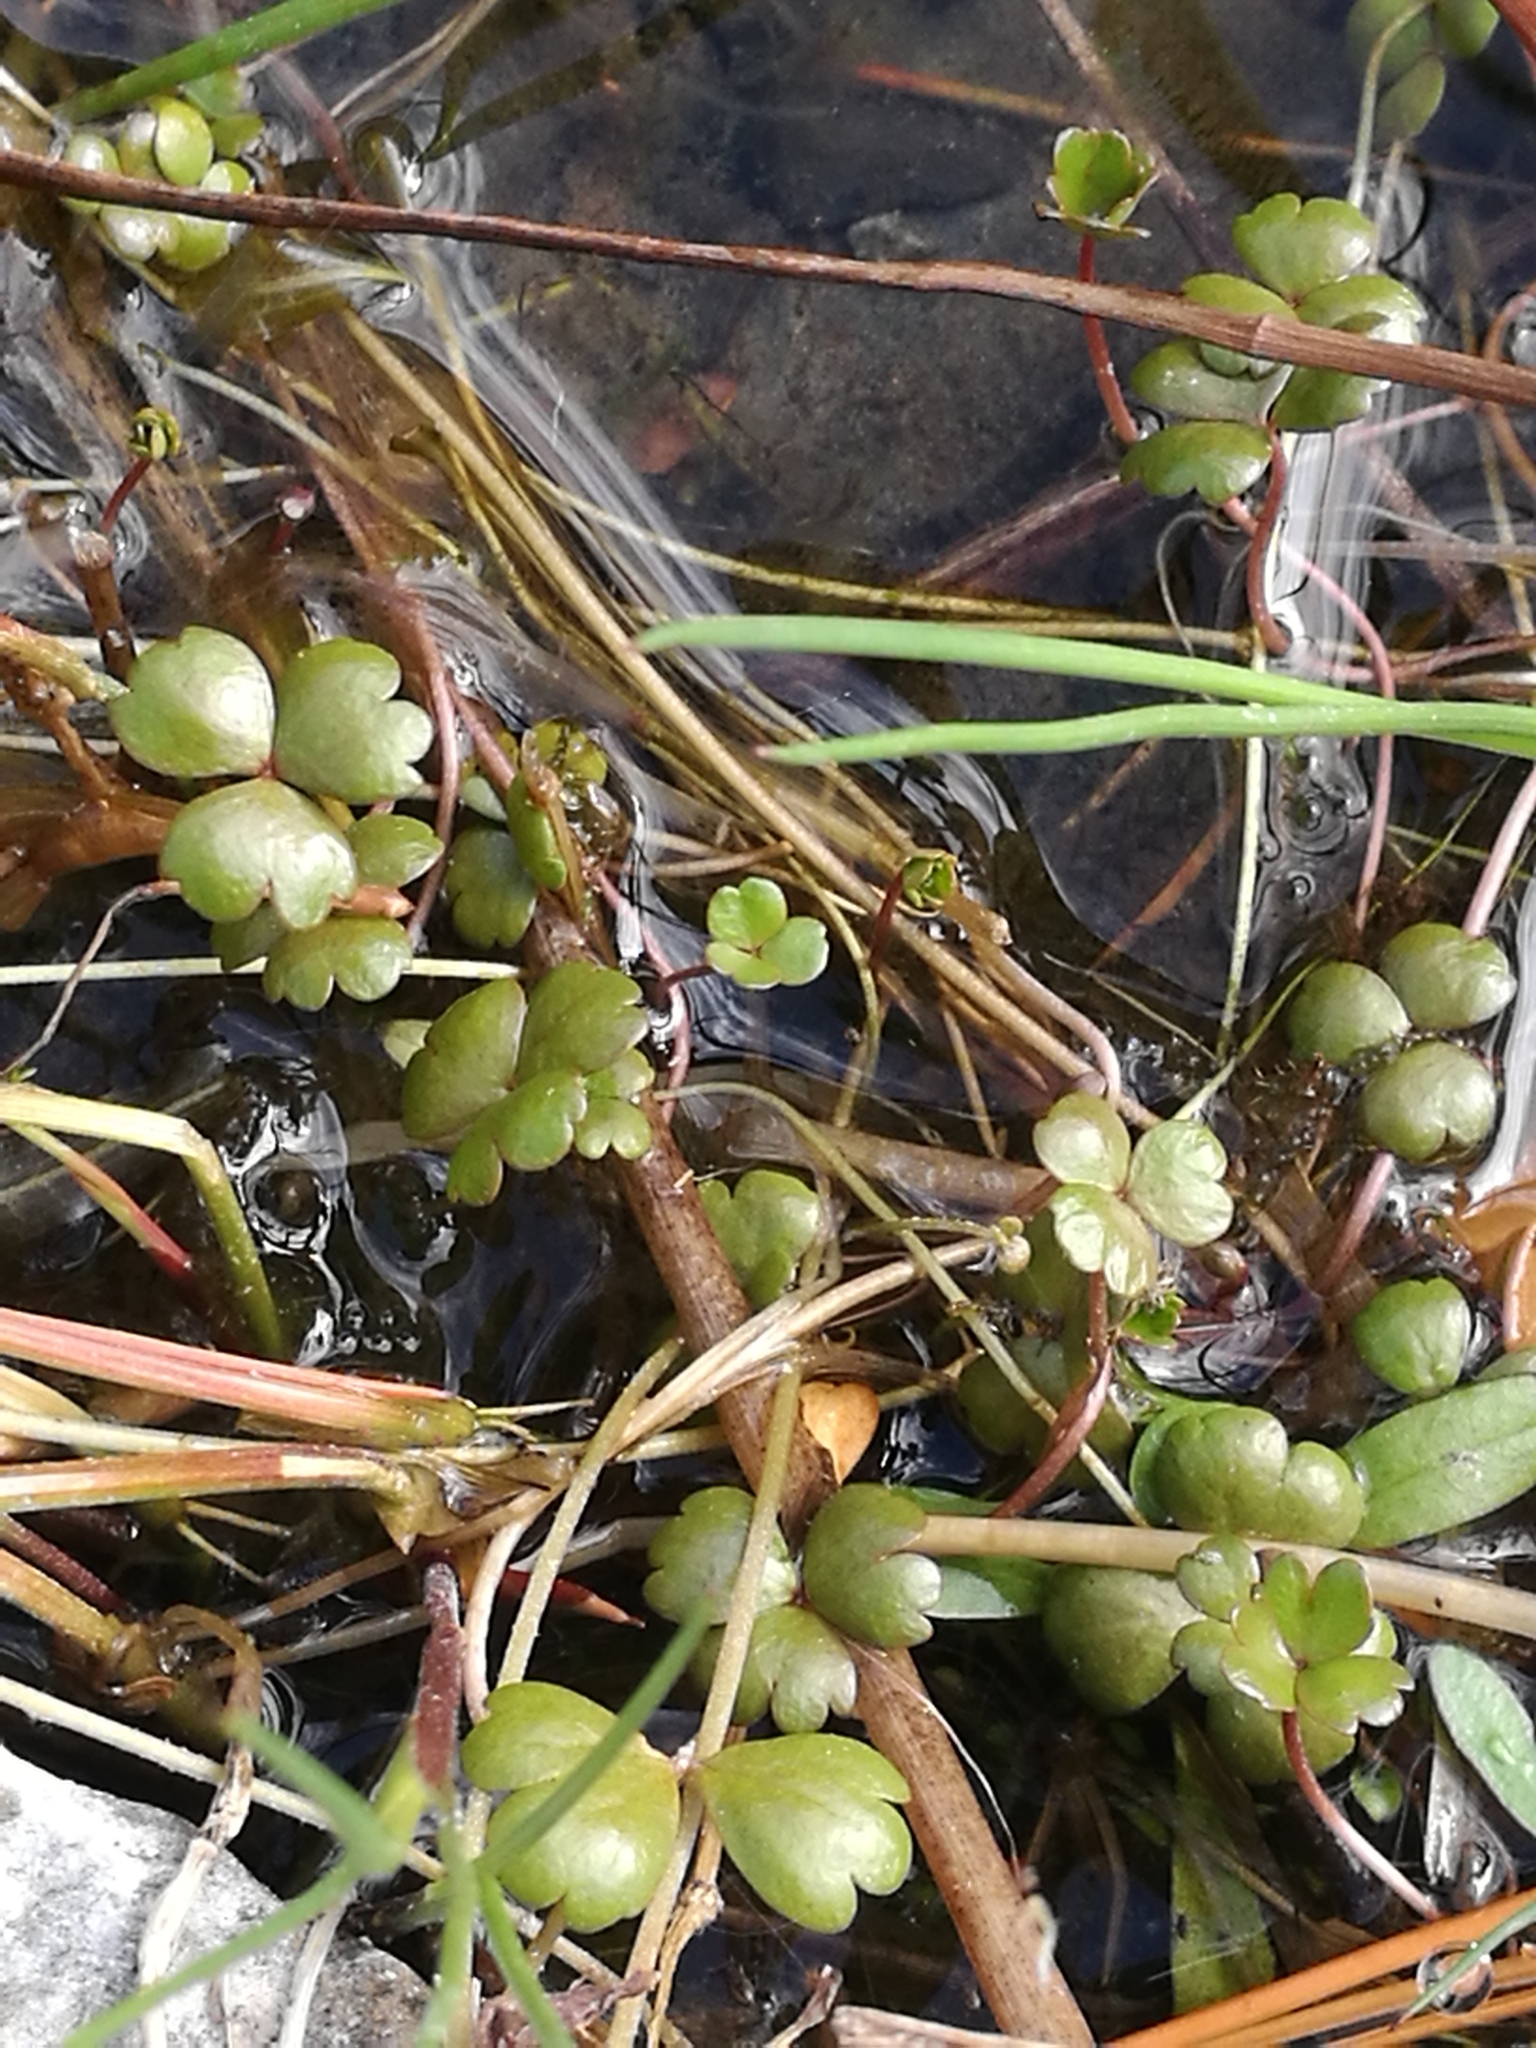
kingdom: Plantae
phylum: Tracheophyta
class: Magnoliopsida
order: Apiales
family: Araliaceae
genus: Hydrocotyle
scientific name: Hydrocotyle sulcata
